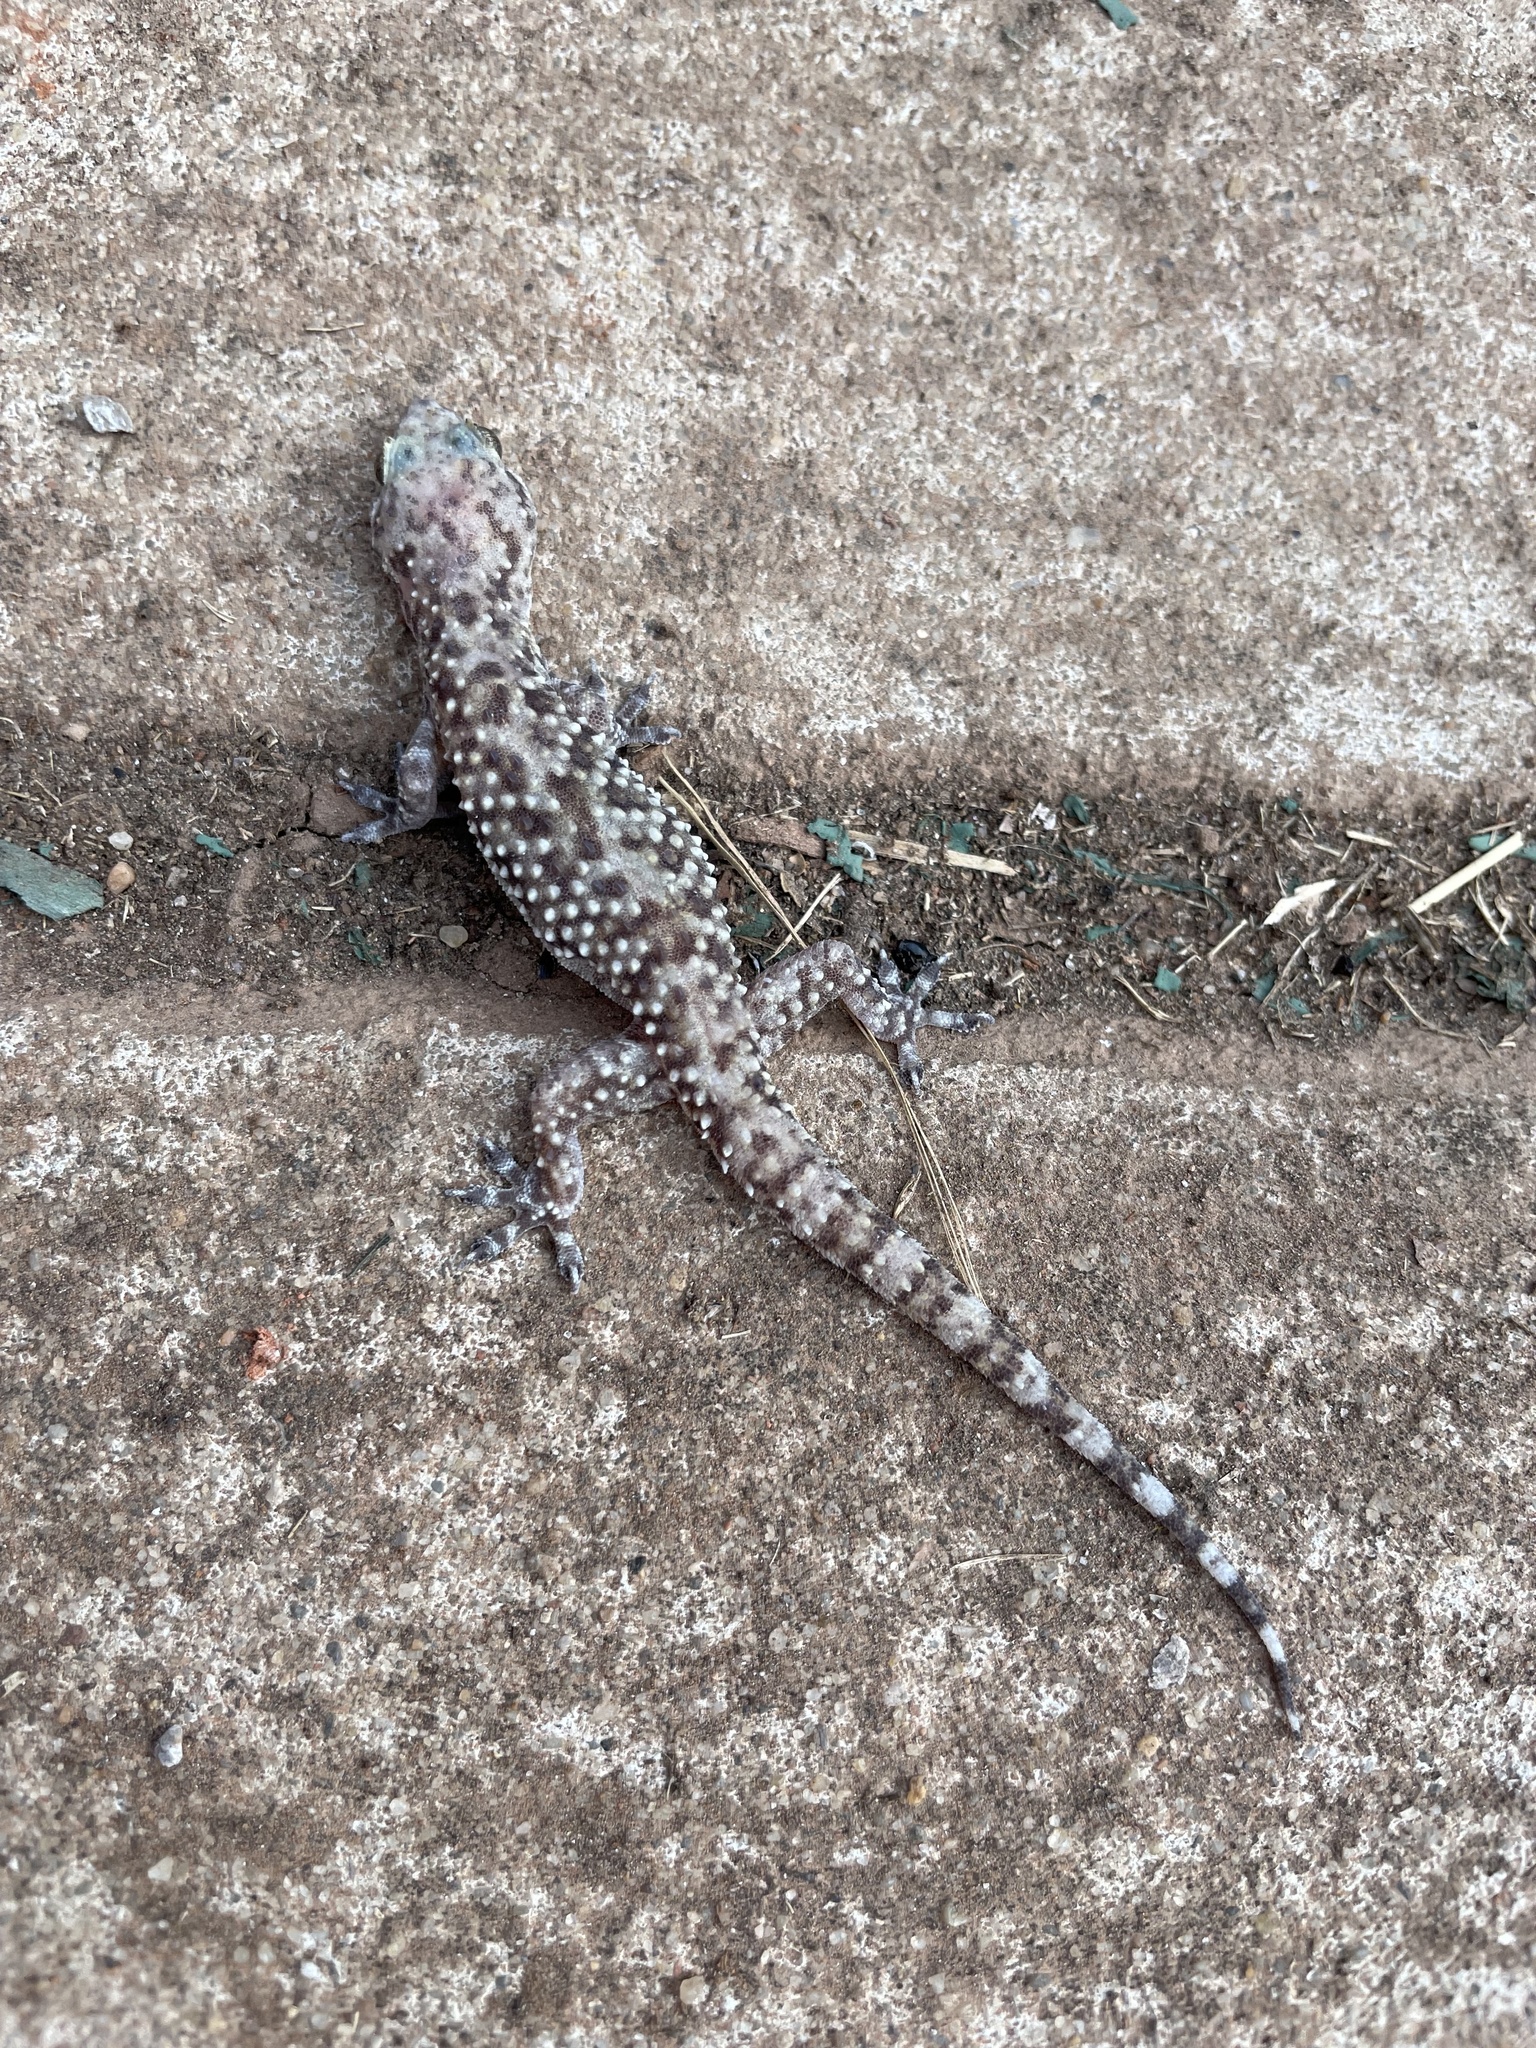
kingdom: Animalia
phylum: Chordata
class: Squamata
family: Gekkonidae
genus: Hemidactylus
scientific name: Hemidactylus turcicus
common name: Turkish gecko
